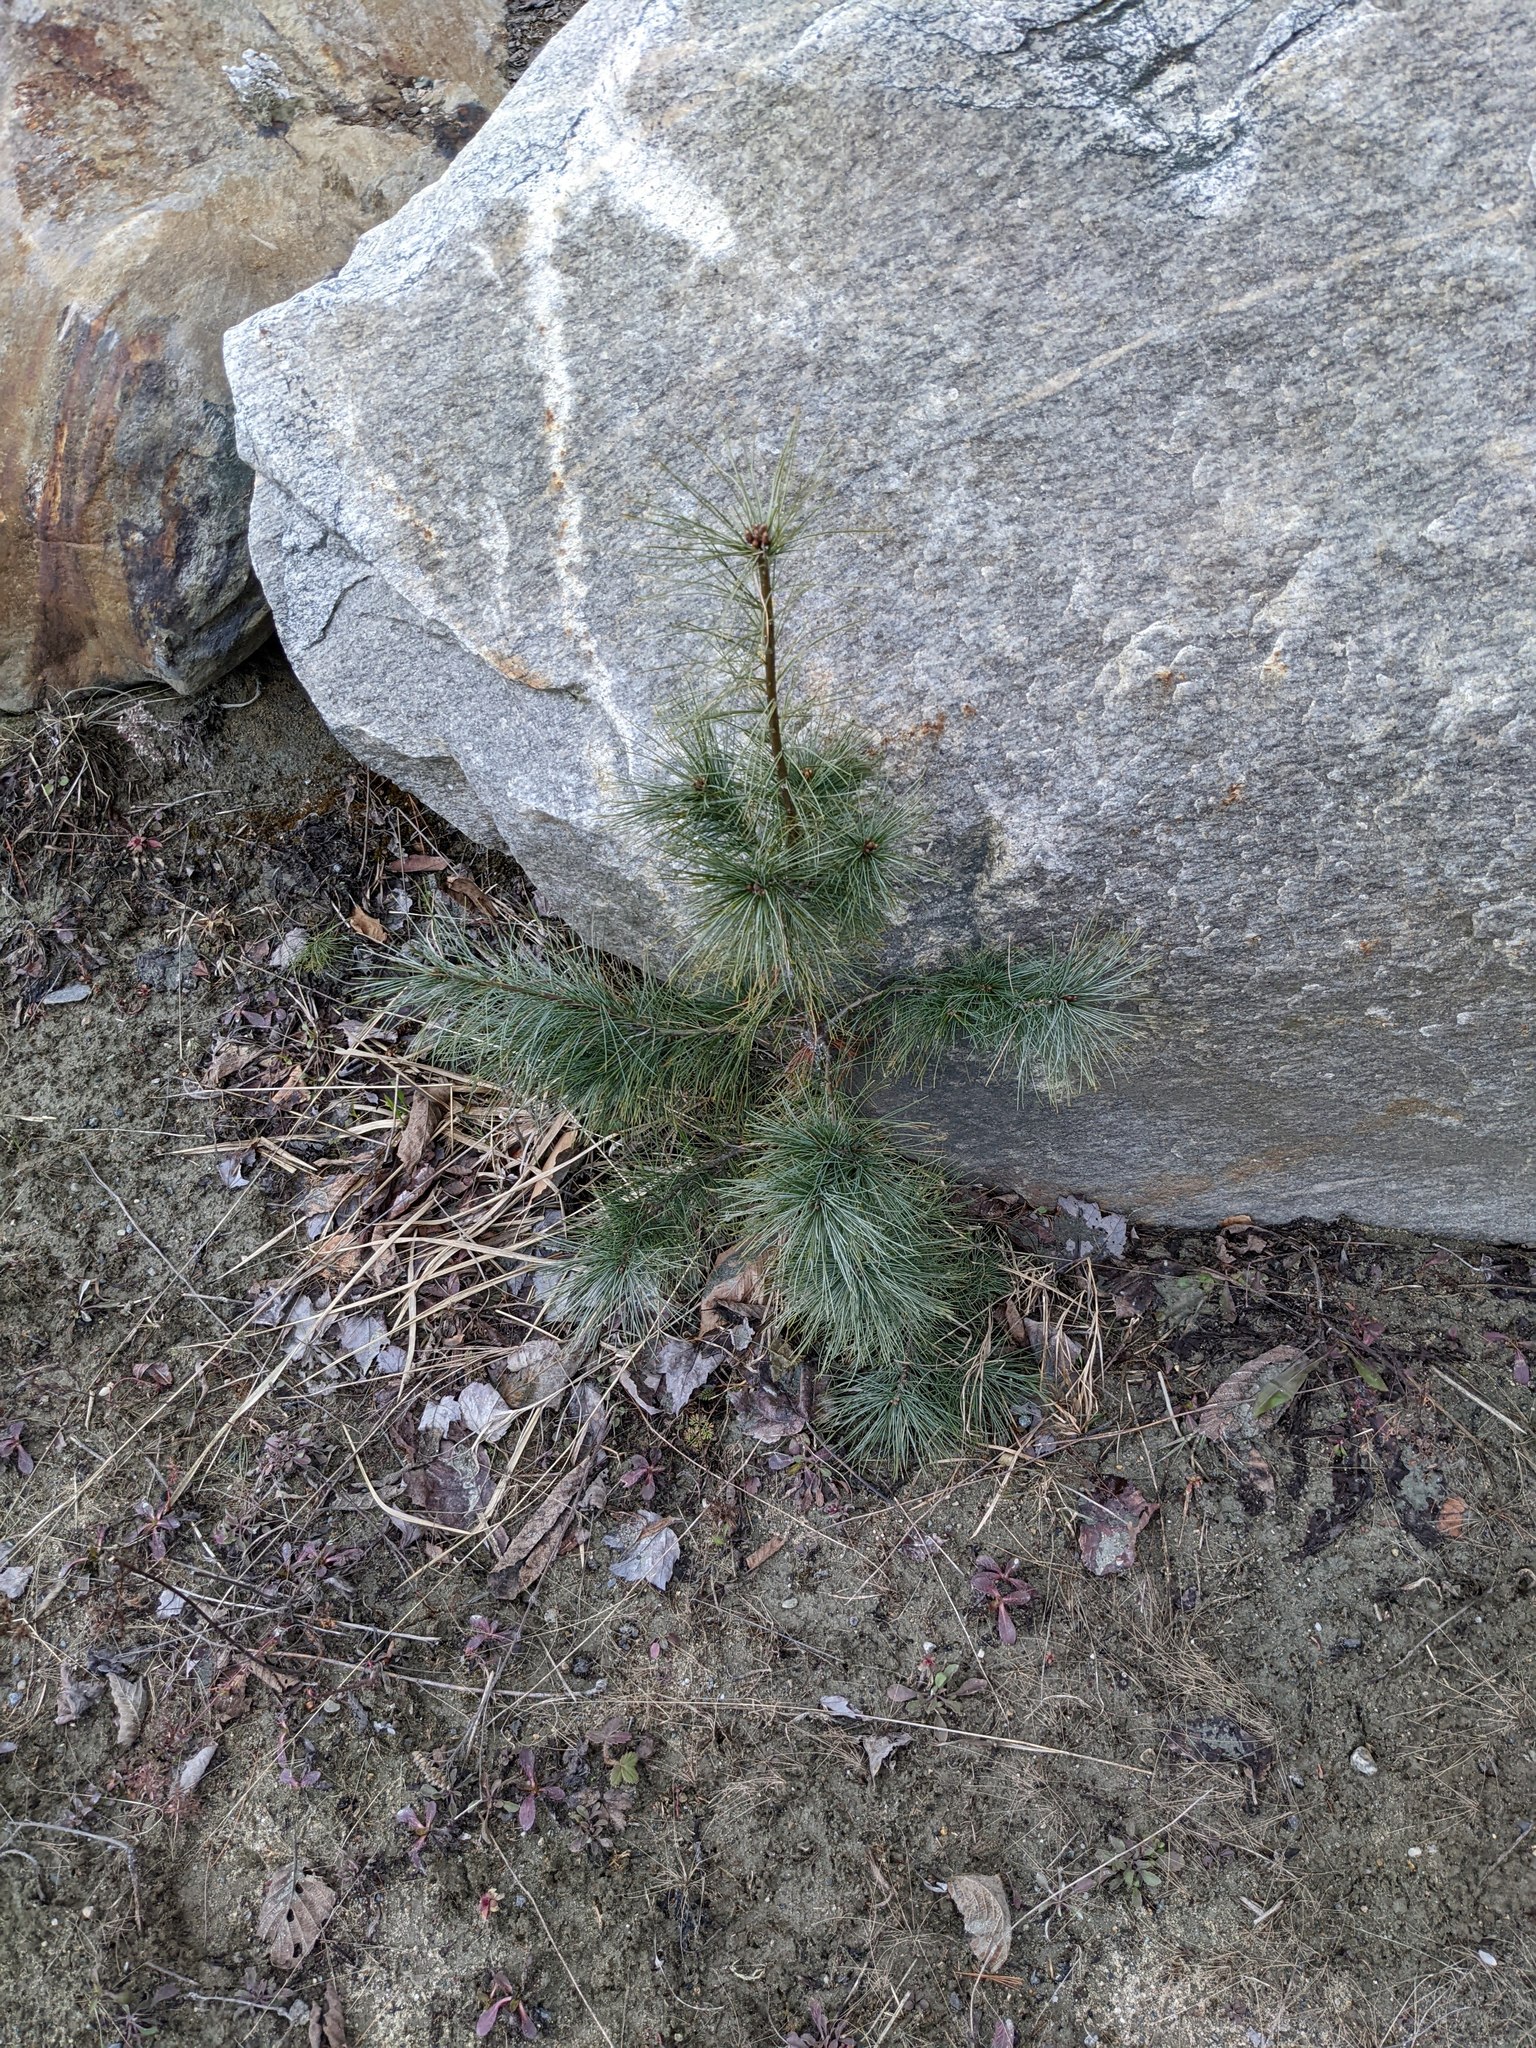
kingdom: Plantae
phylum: Tracheophyta
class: Pinopsida
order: Pinales
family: Pinaceae
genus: Pinus
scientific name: Pinus strobus
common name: Weymouth pine
